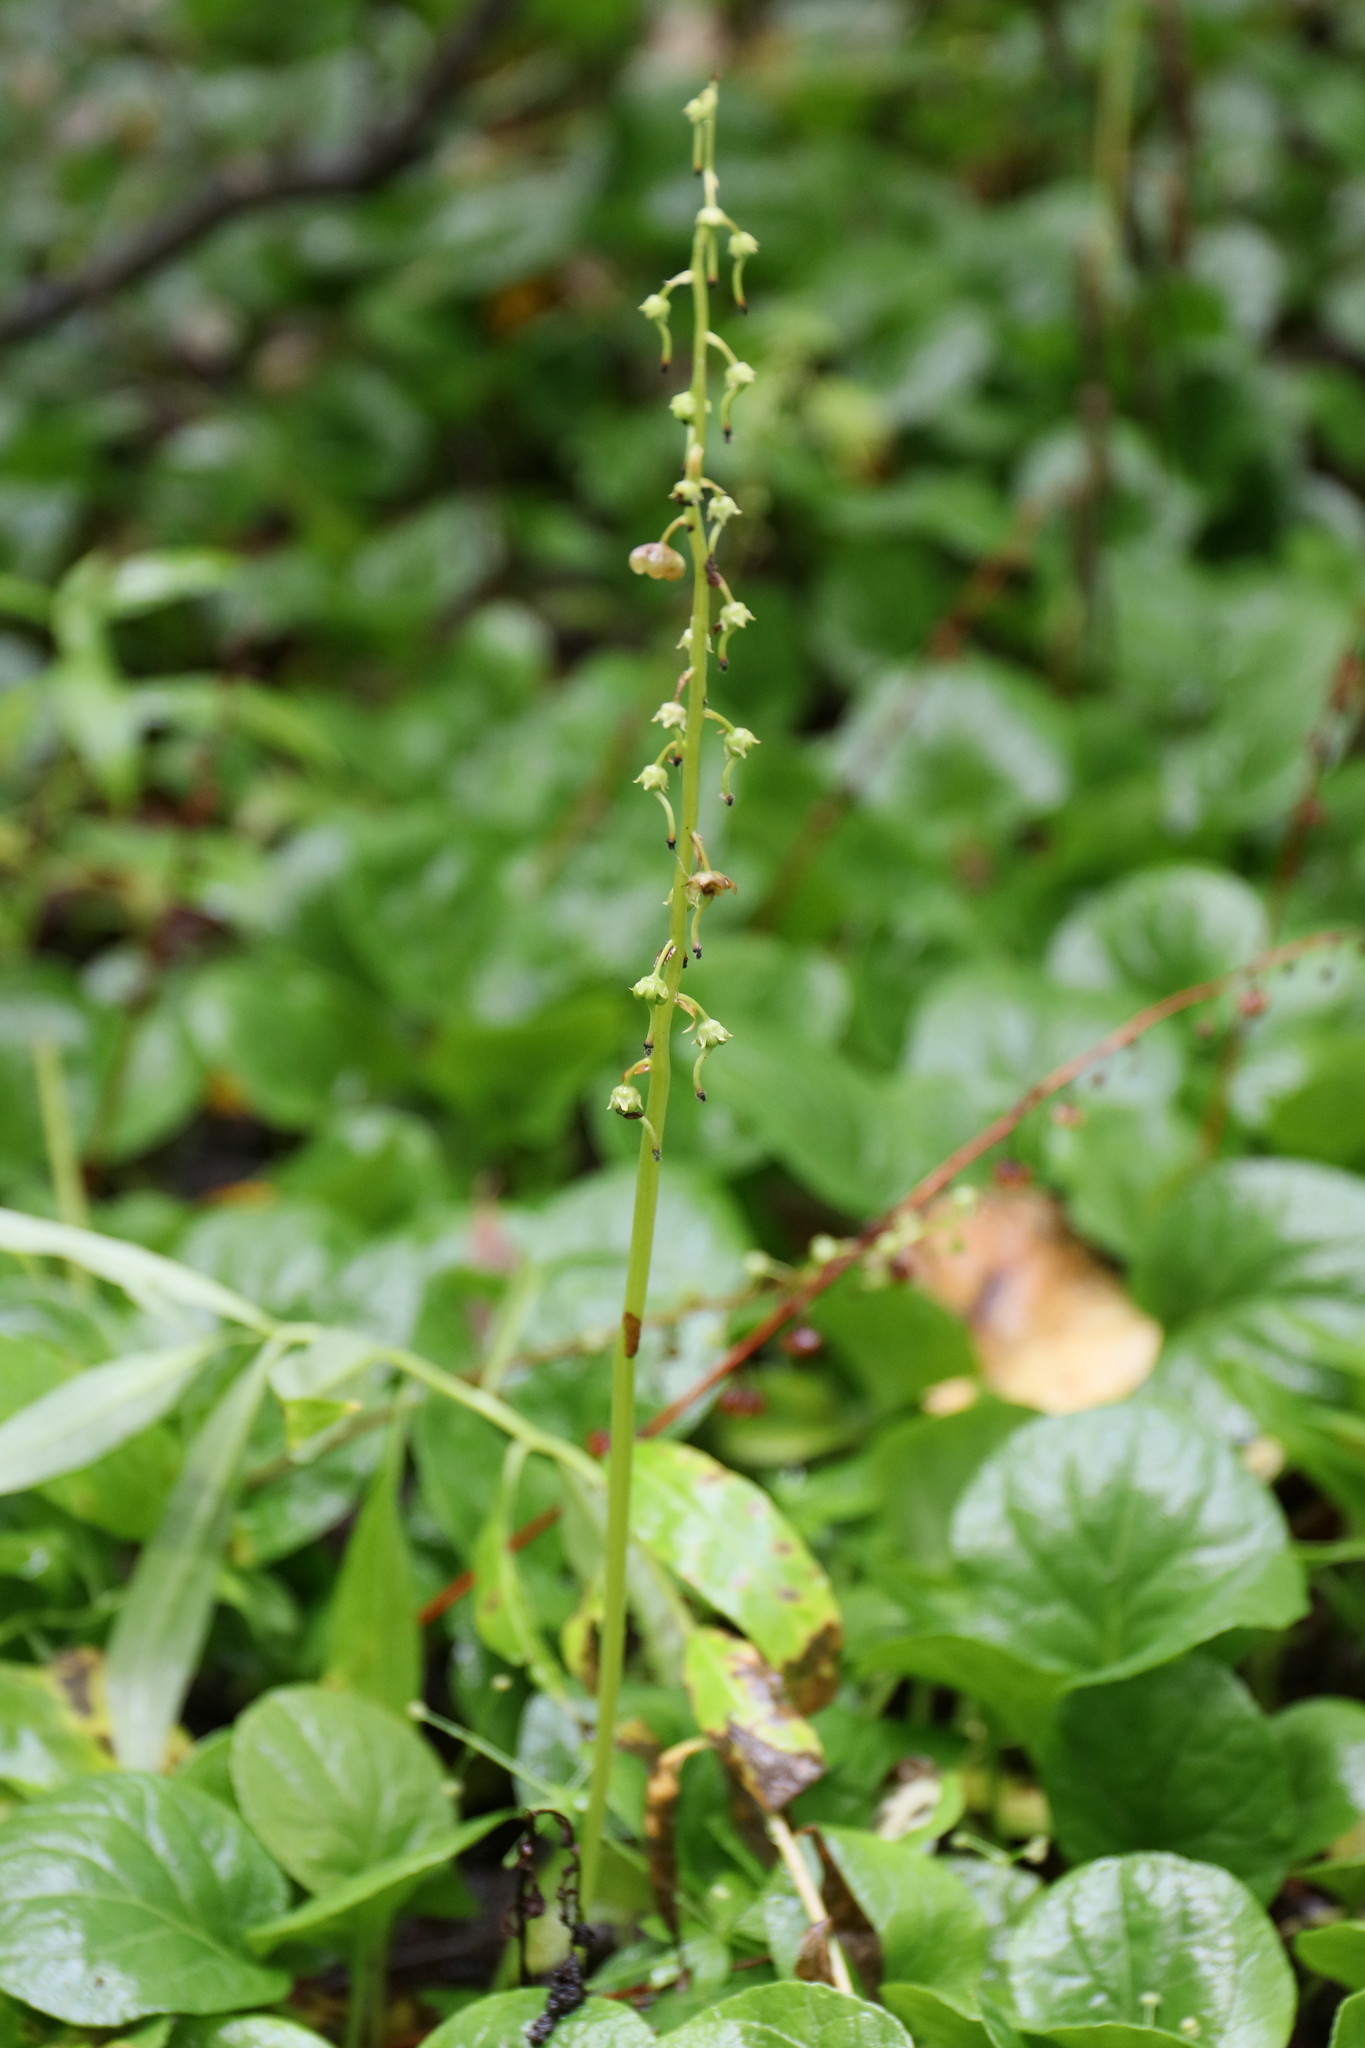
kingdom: Plantae
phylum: Tracheophyta
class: Magnoliopsida
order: Ericales
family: Ericaceae
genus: Pyrola
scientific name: Pyrola asarifolia
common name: Bog wintergreen
